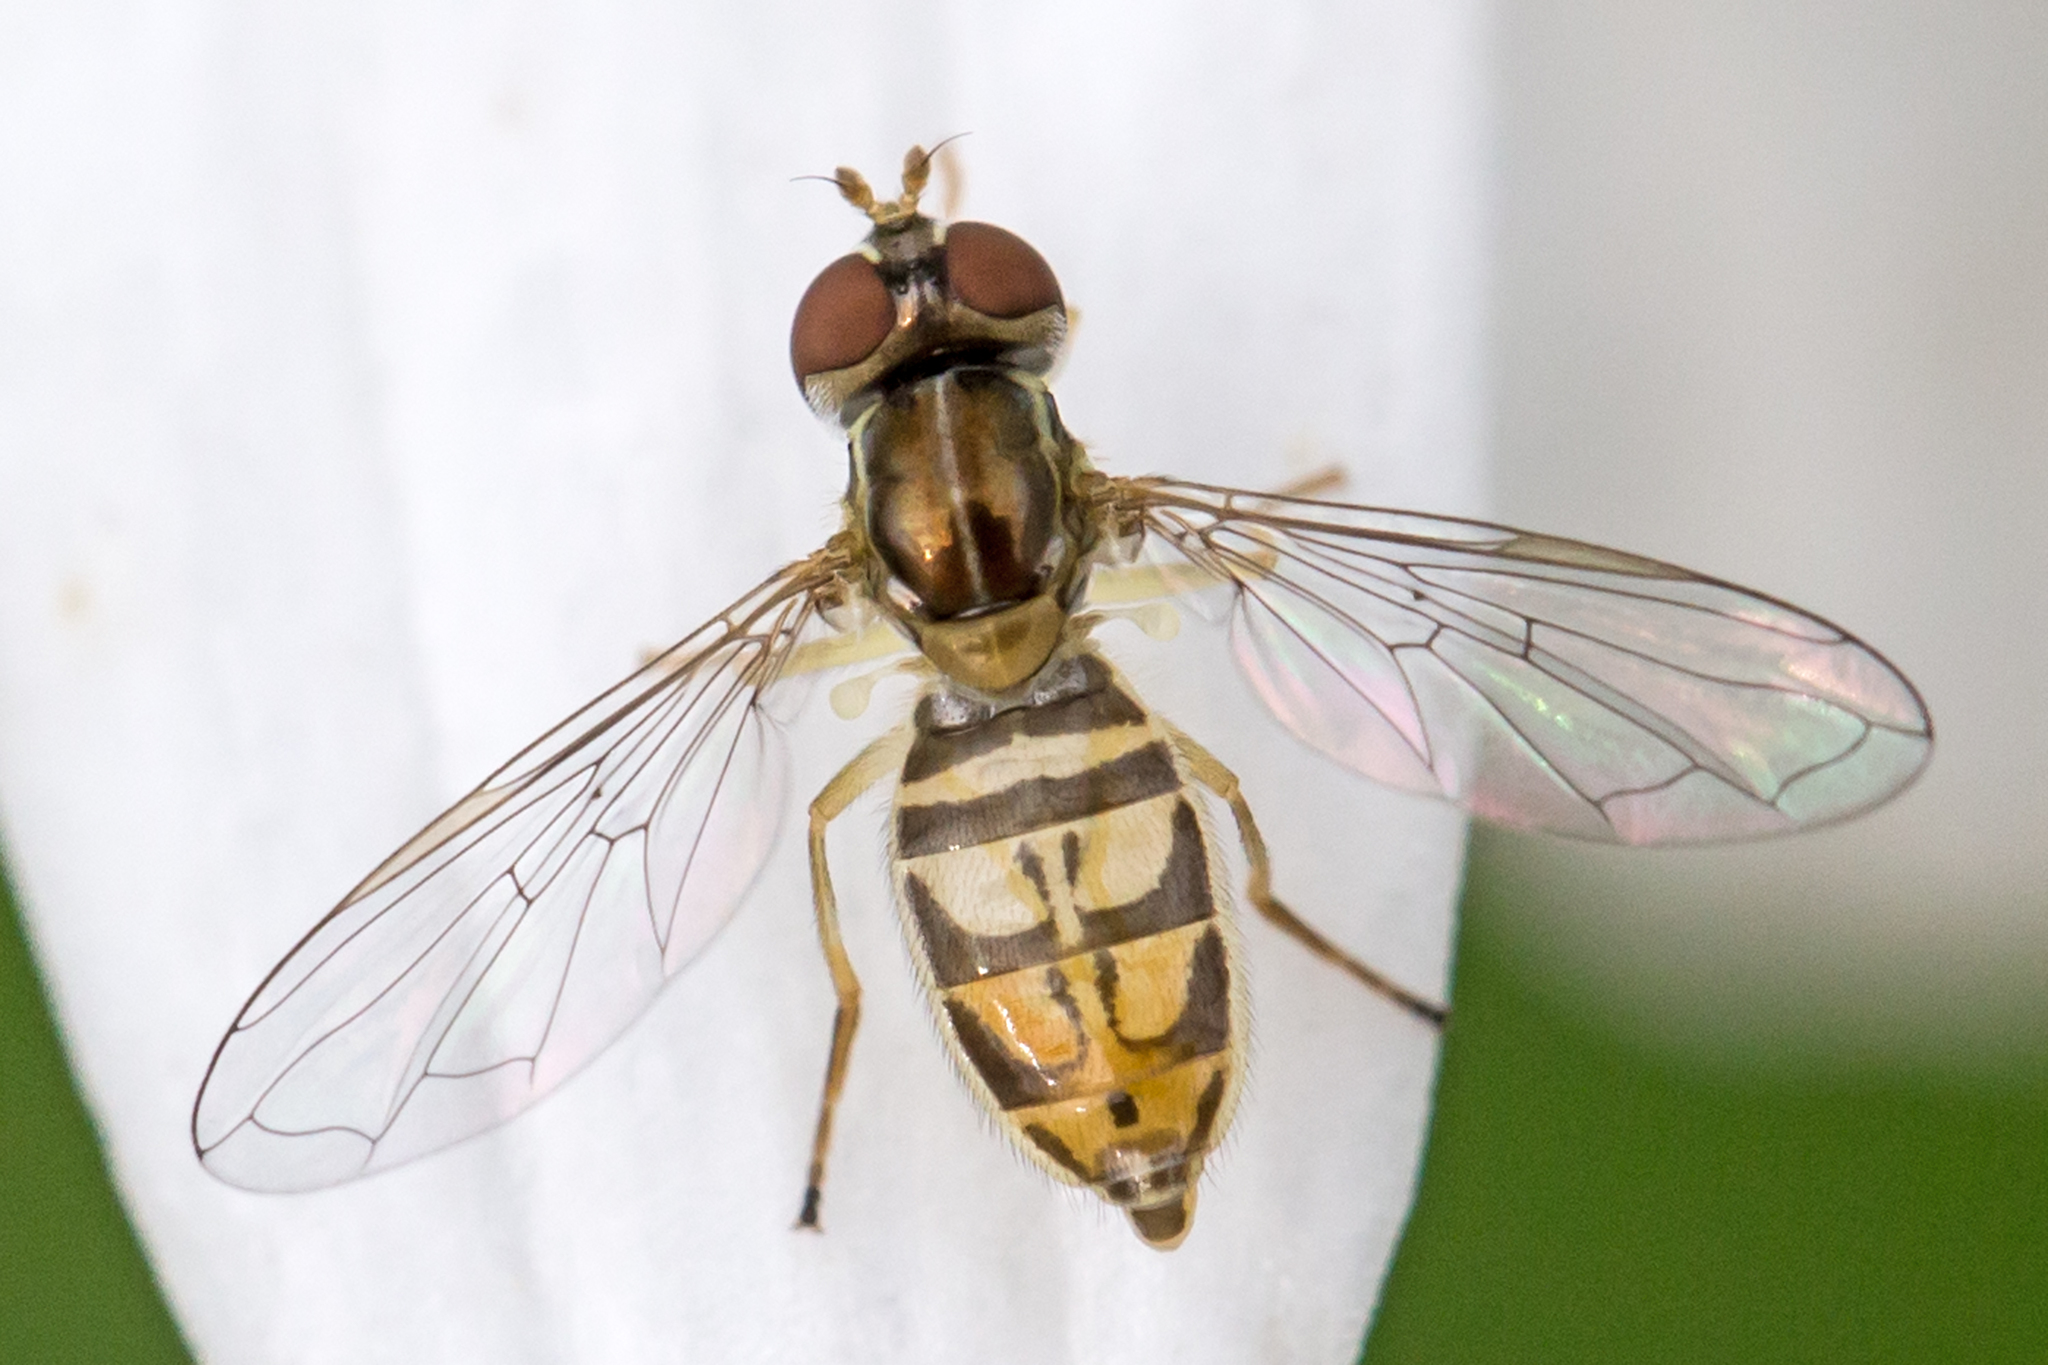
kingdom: Animalia
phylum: Arthropoda
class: Insecta
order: Diptera
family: Syrphidae
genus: Toxomerus
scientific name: Toxomerus marginatus
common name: Syrphid fly
